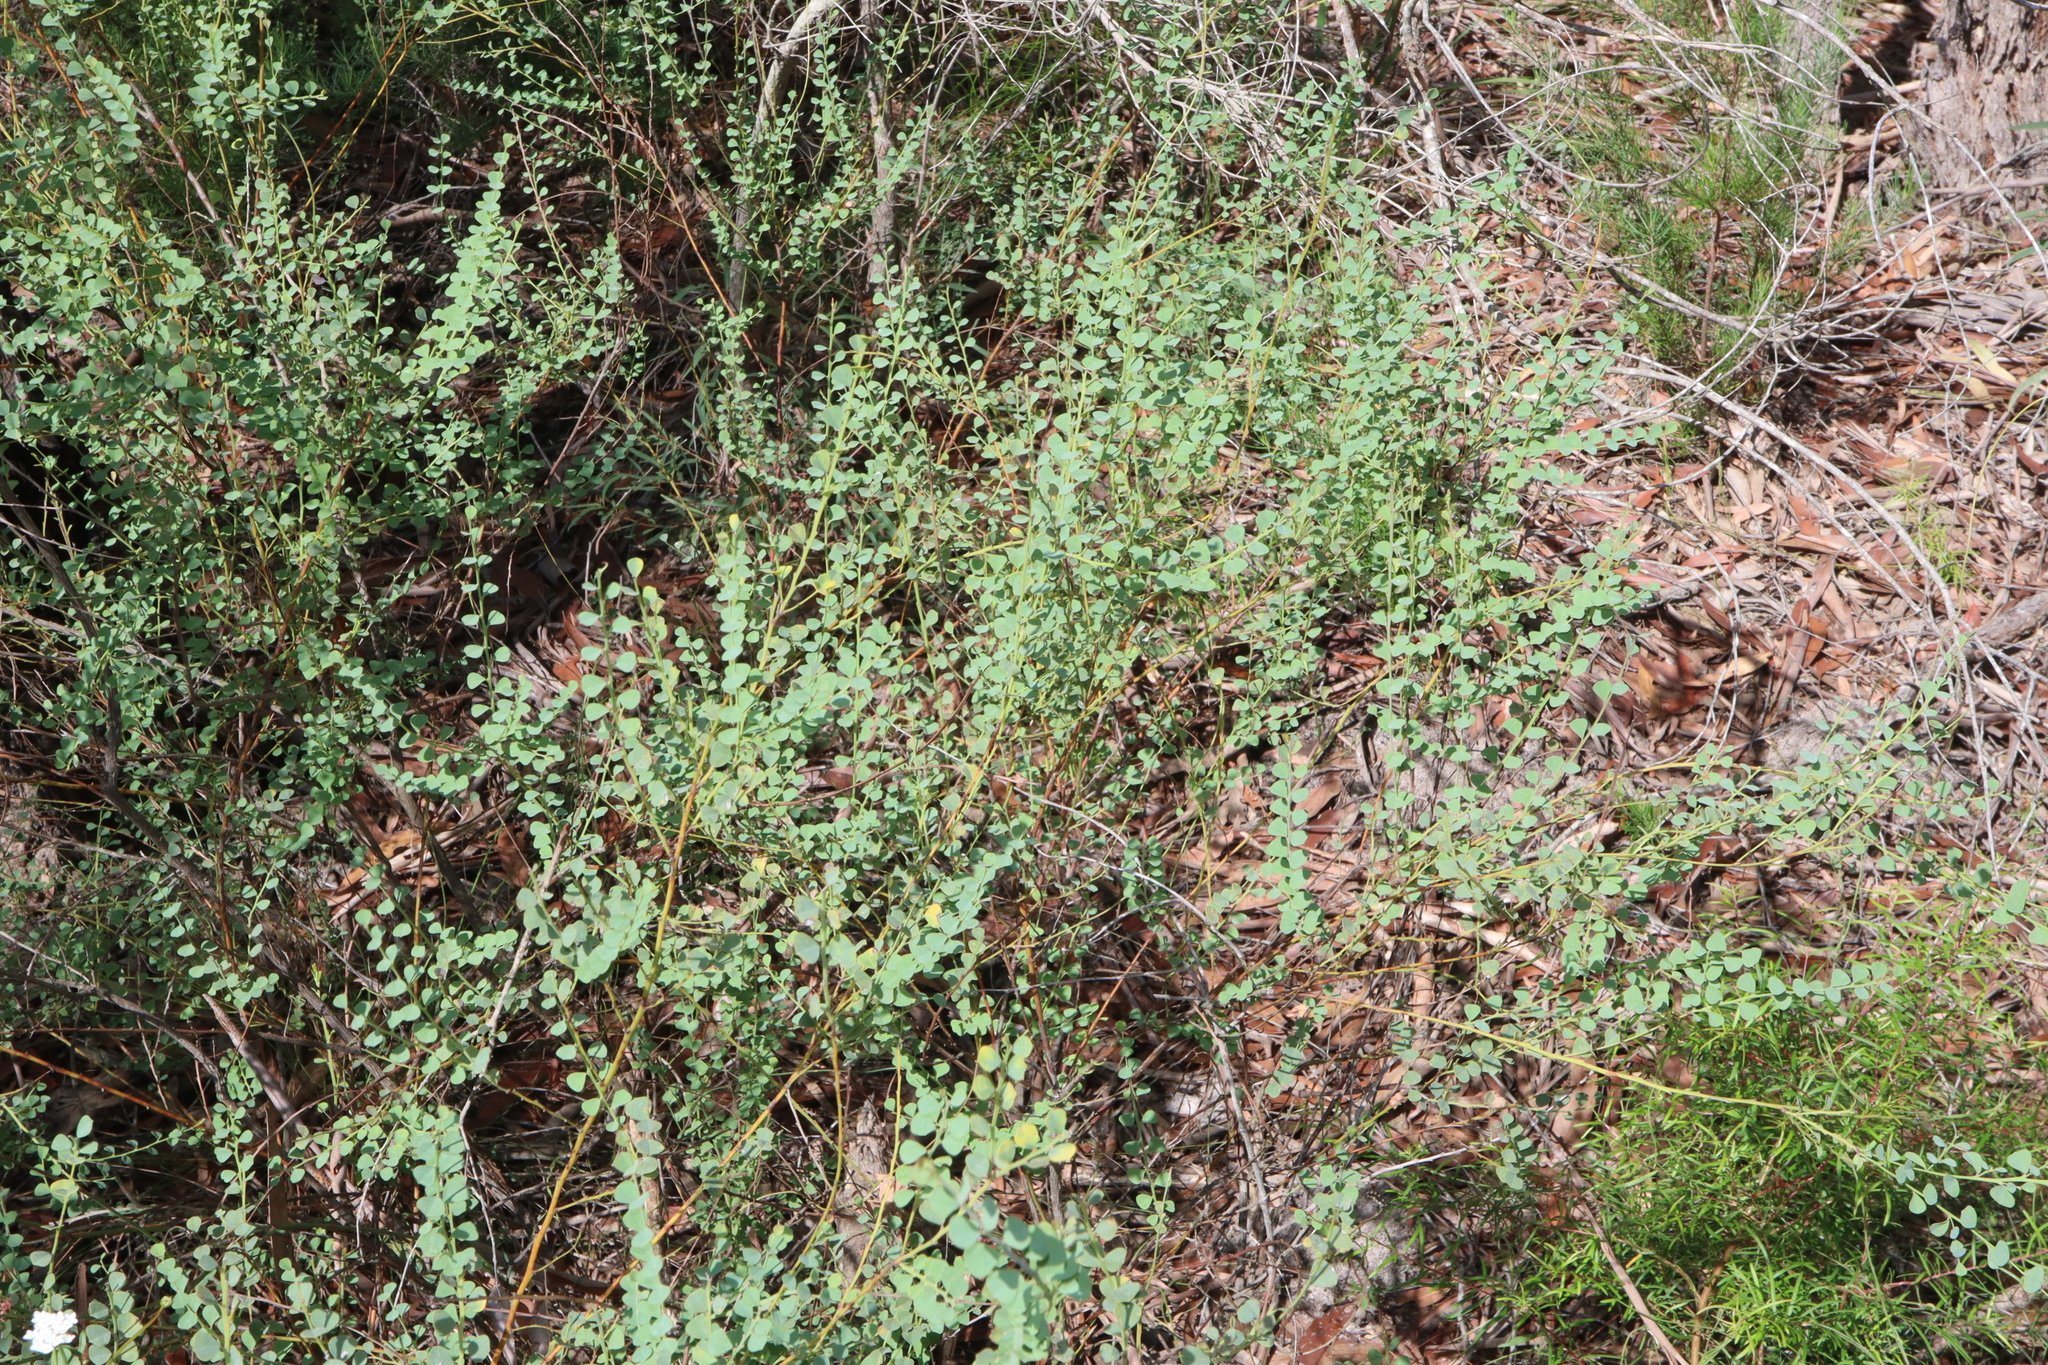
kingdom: Plantae
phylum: Tracheophyta
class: Magnoliopsida
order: Fabales
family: Fabaceae
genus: Bossiaea
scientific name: Bossiaea rhombifolia
